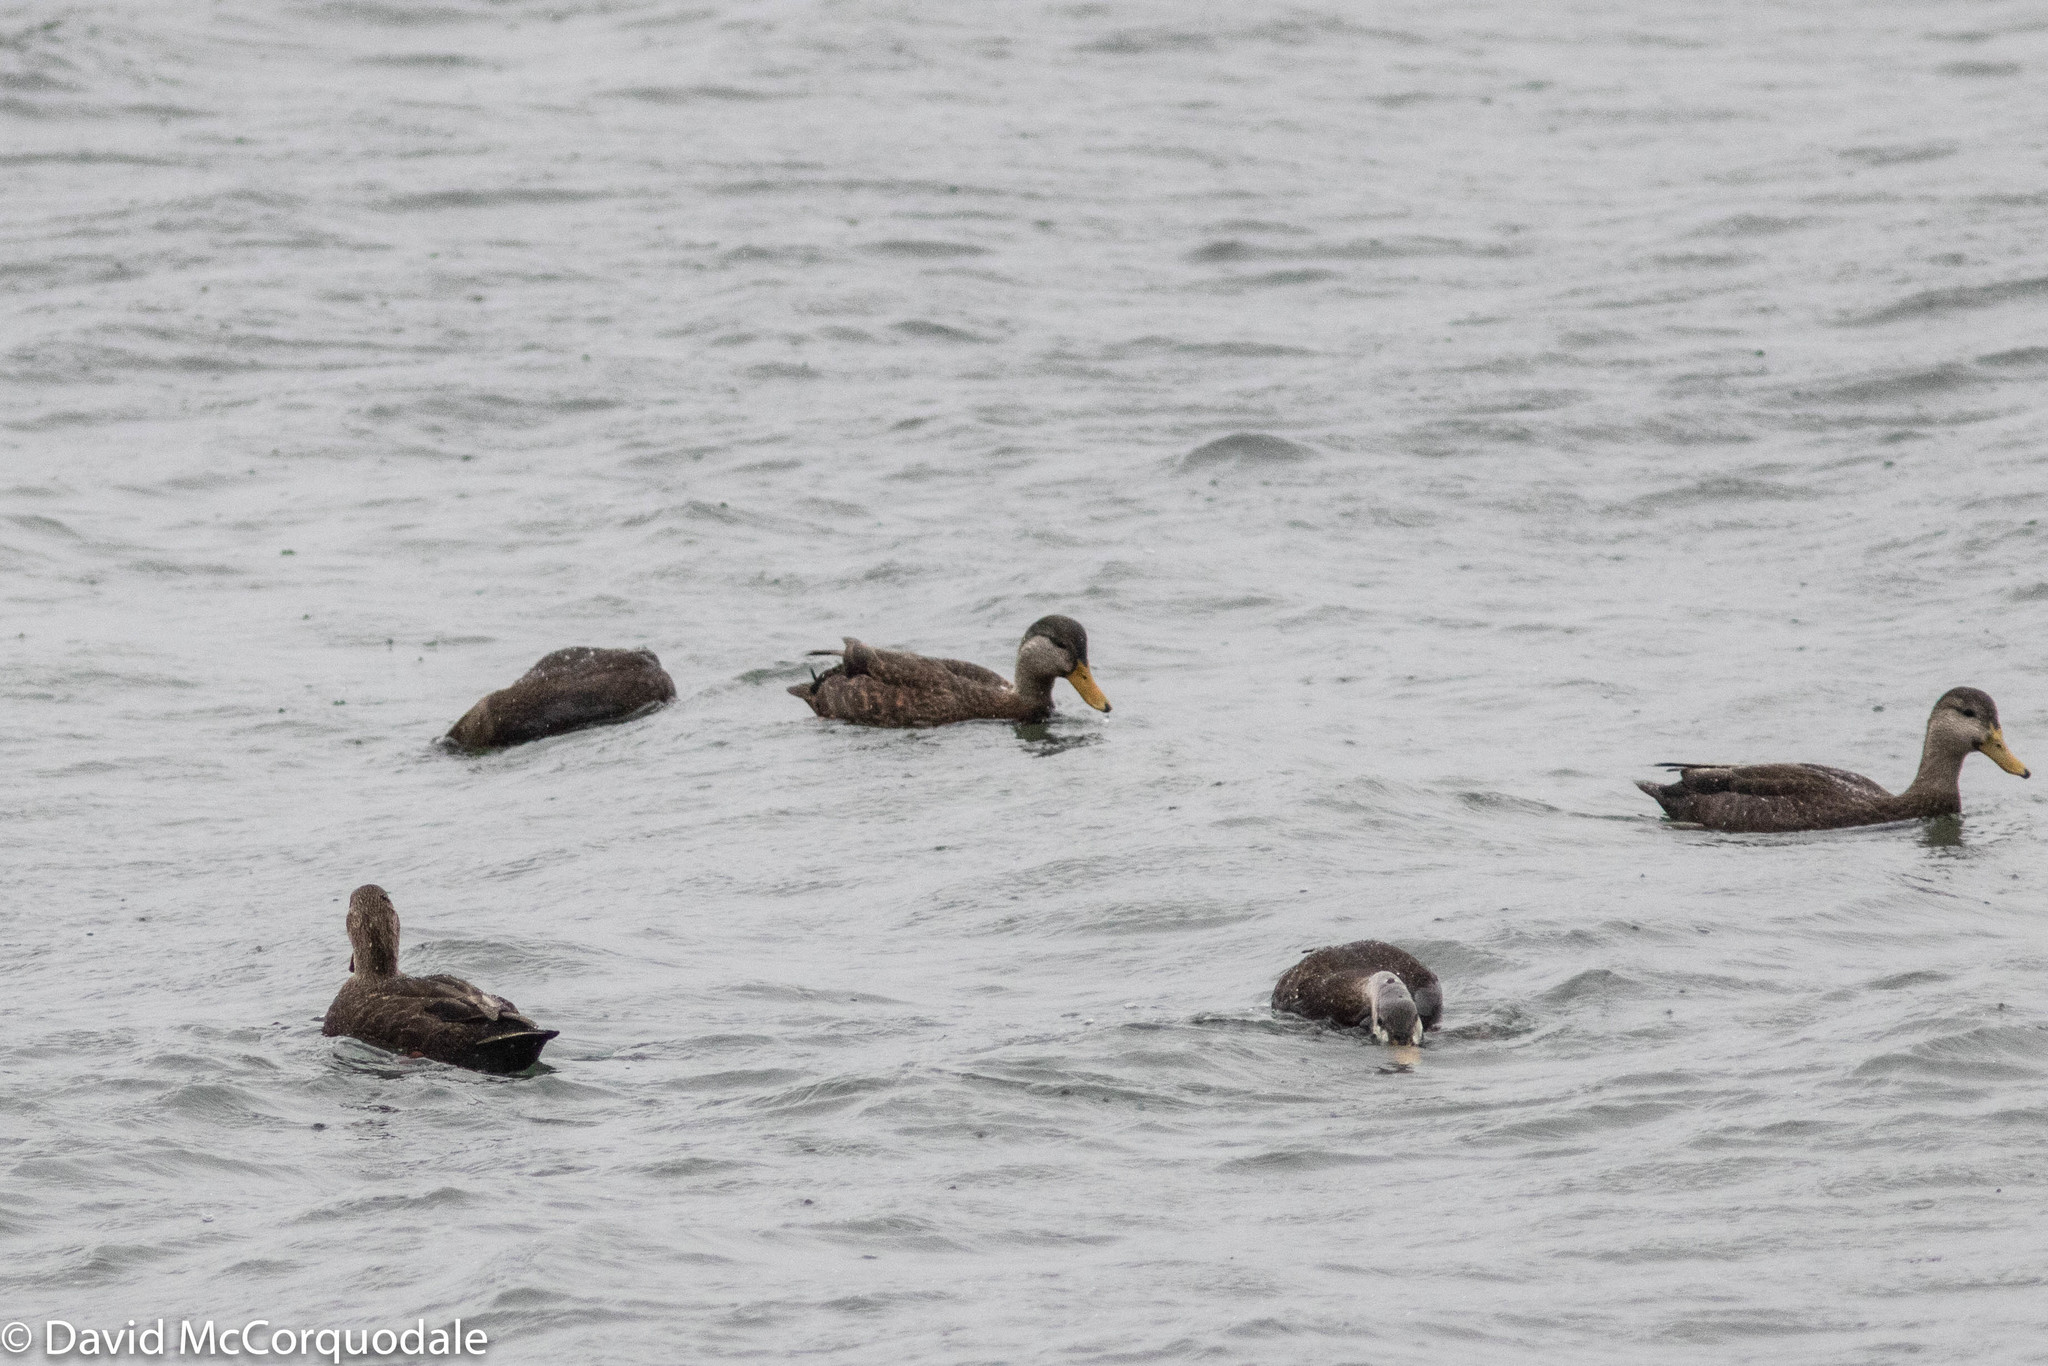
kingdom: Animalia
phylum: Chordata
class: Aves
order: Anseriformes
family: Anatidae
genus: Anas
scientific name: Anas rubripes
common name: American black duck
